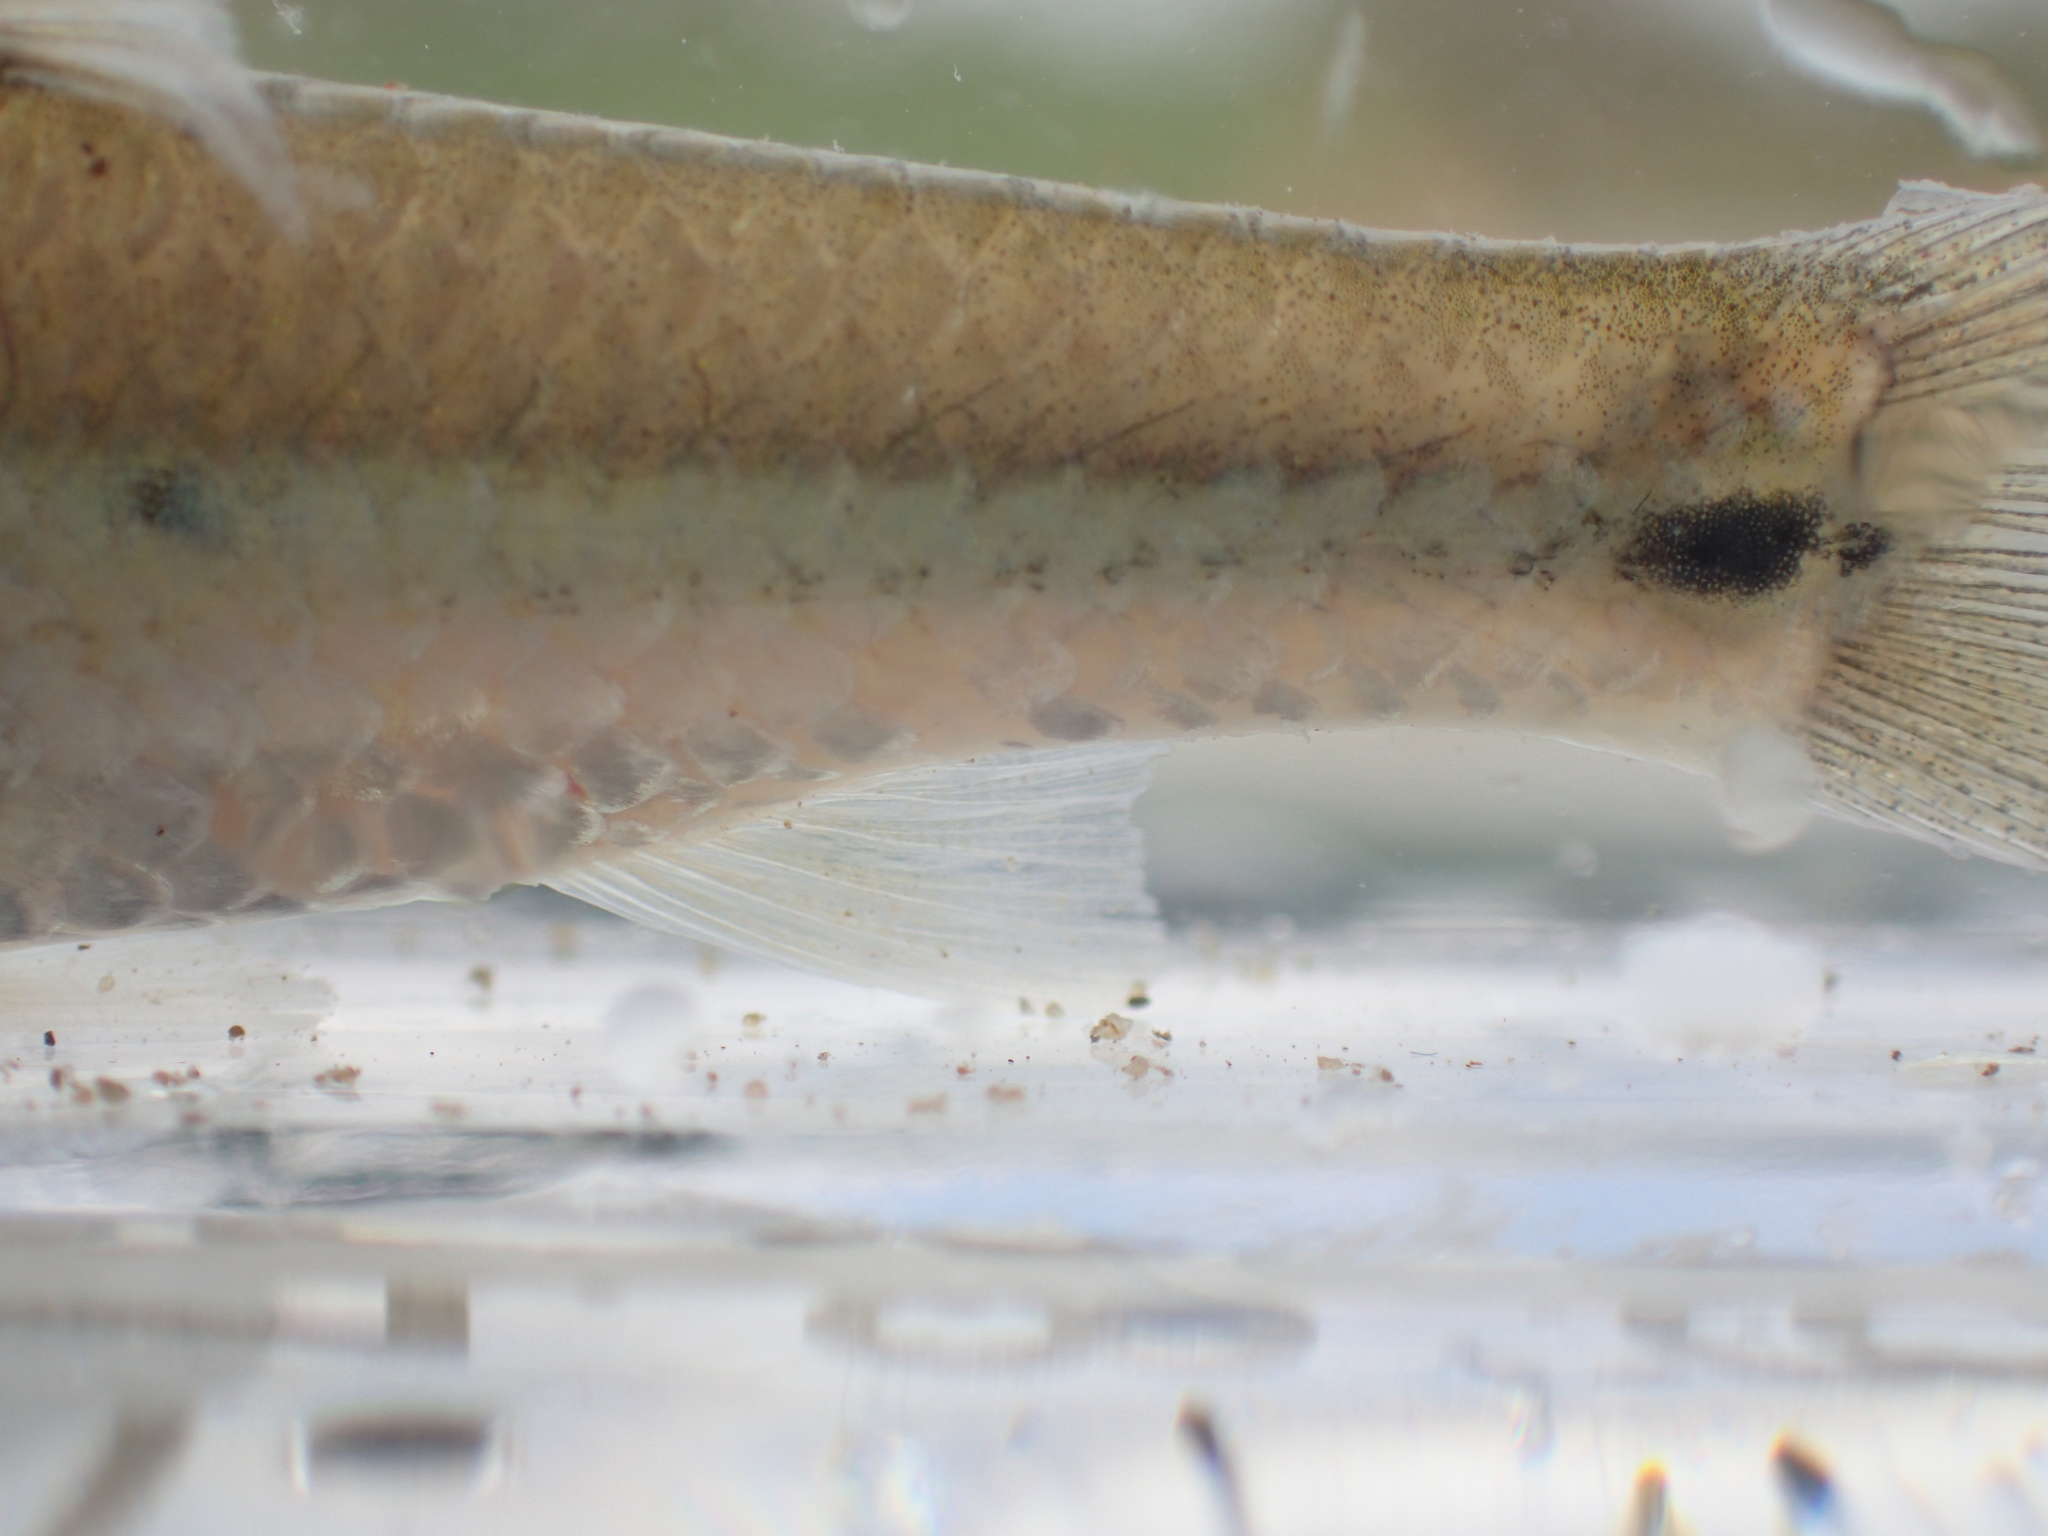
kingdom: Animalia
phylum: Chordata
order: Cypriniformes
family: Cyprinidae
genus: Enteromius
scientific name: Enteromius trimaculatus
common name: Threespot barb
